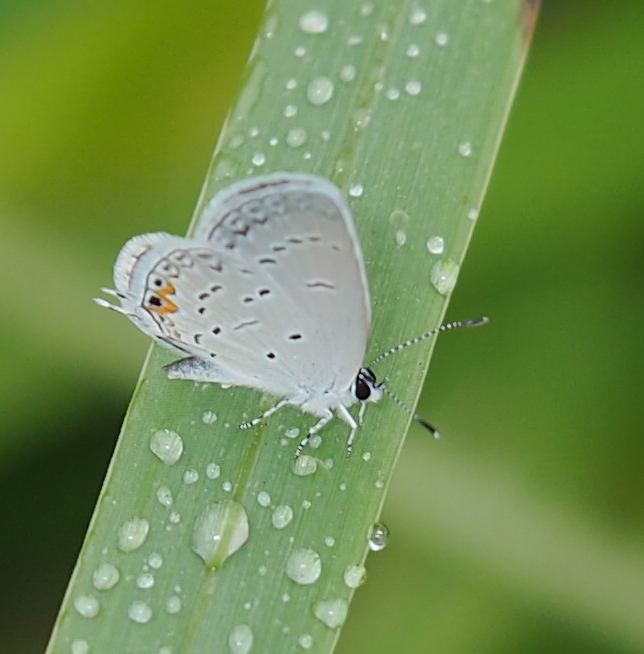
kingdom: Animalia
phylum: Arthropoda
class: Insecta
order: Lepidoptera
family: Lycaenidae
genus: Elkalyce
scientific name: Elkalyce comyntas
